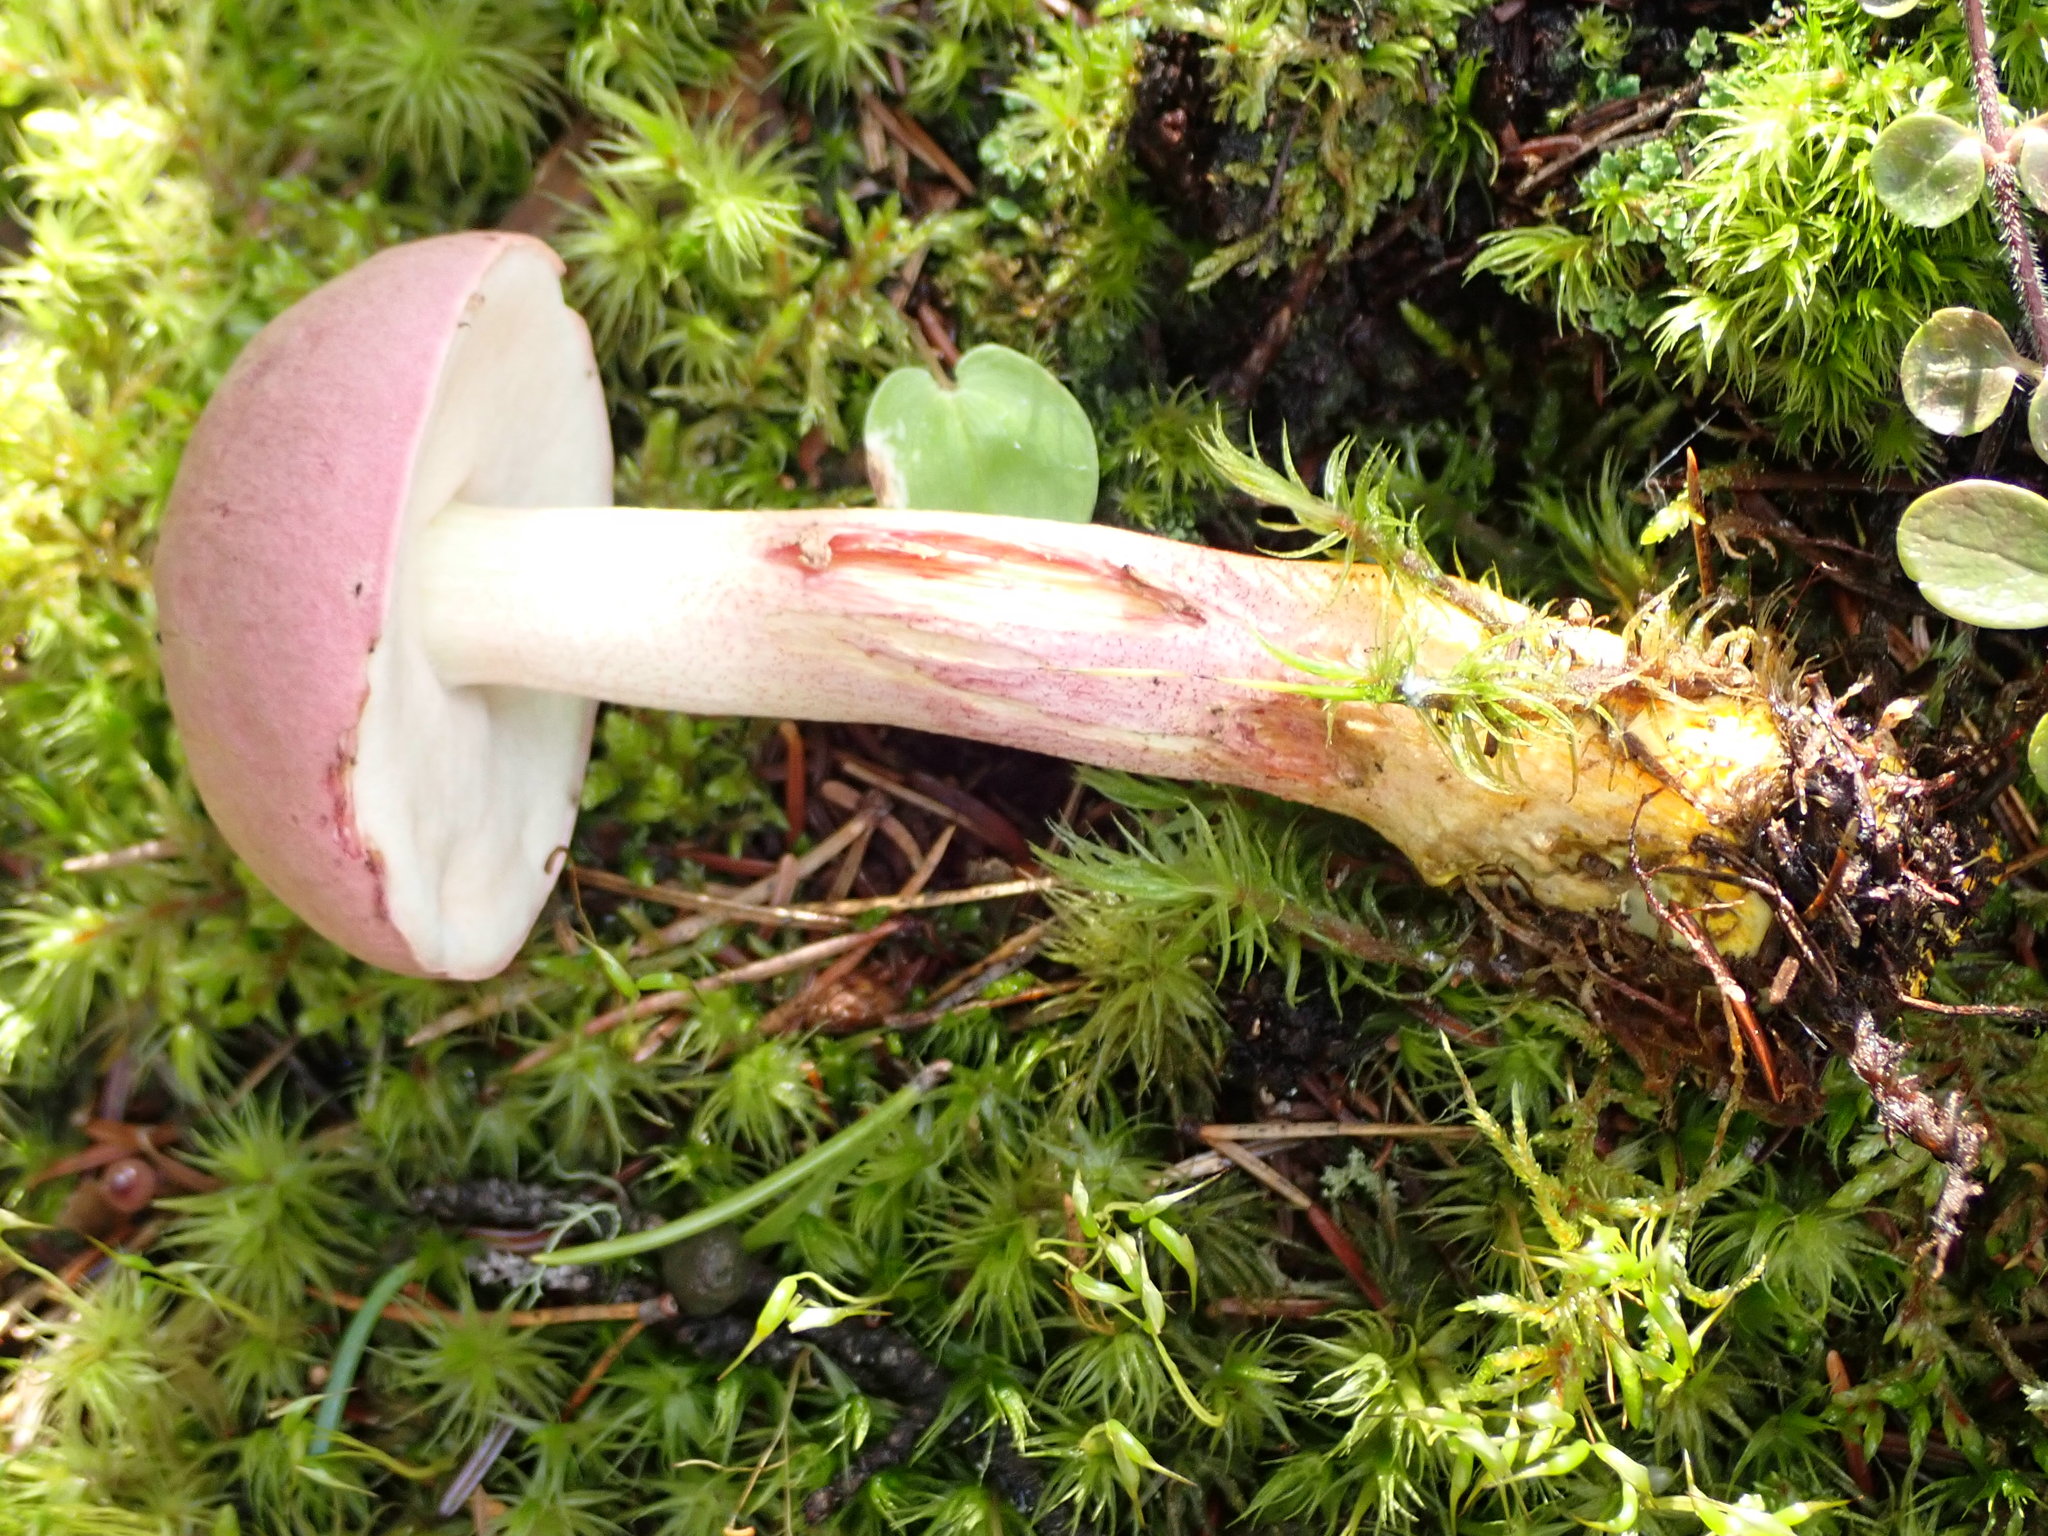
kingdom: Fungi
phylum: Basidiomycota
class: Agaricomycetes
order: Boletales
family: Boletaceae
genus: Harrya
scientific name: Harrya chromipes
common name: Chrome-footed bolete
